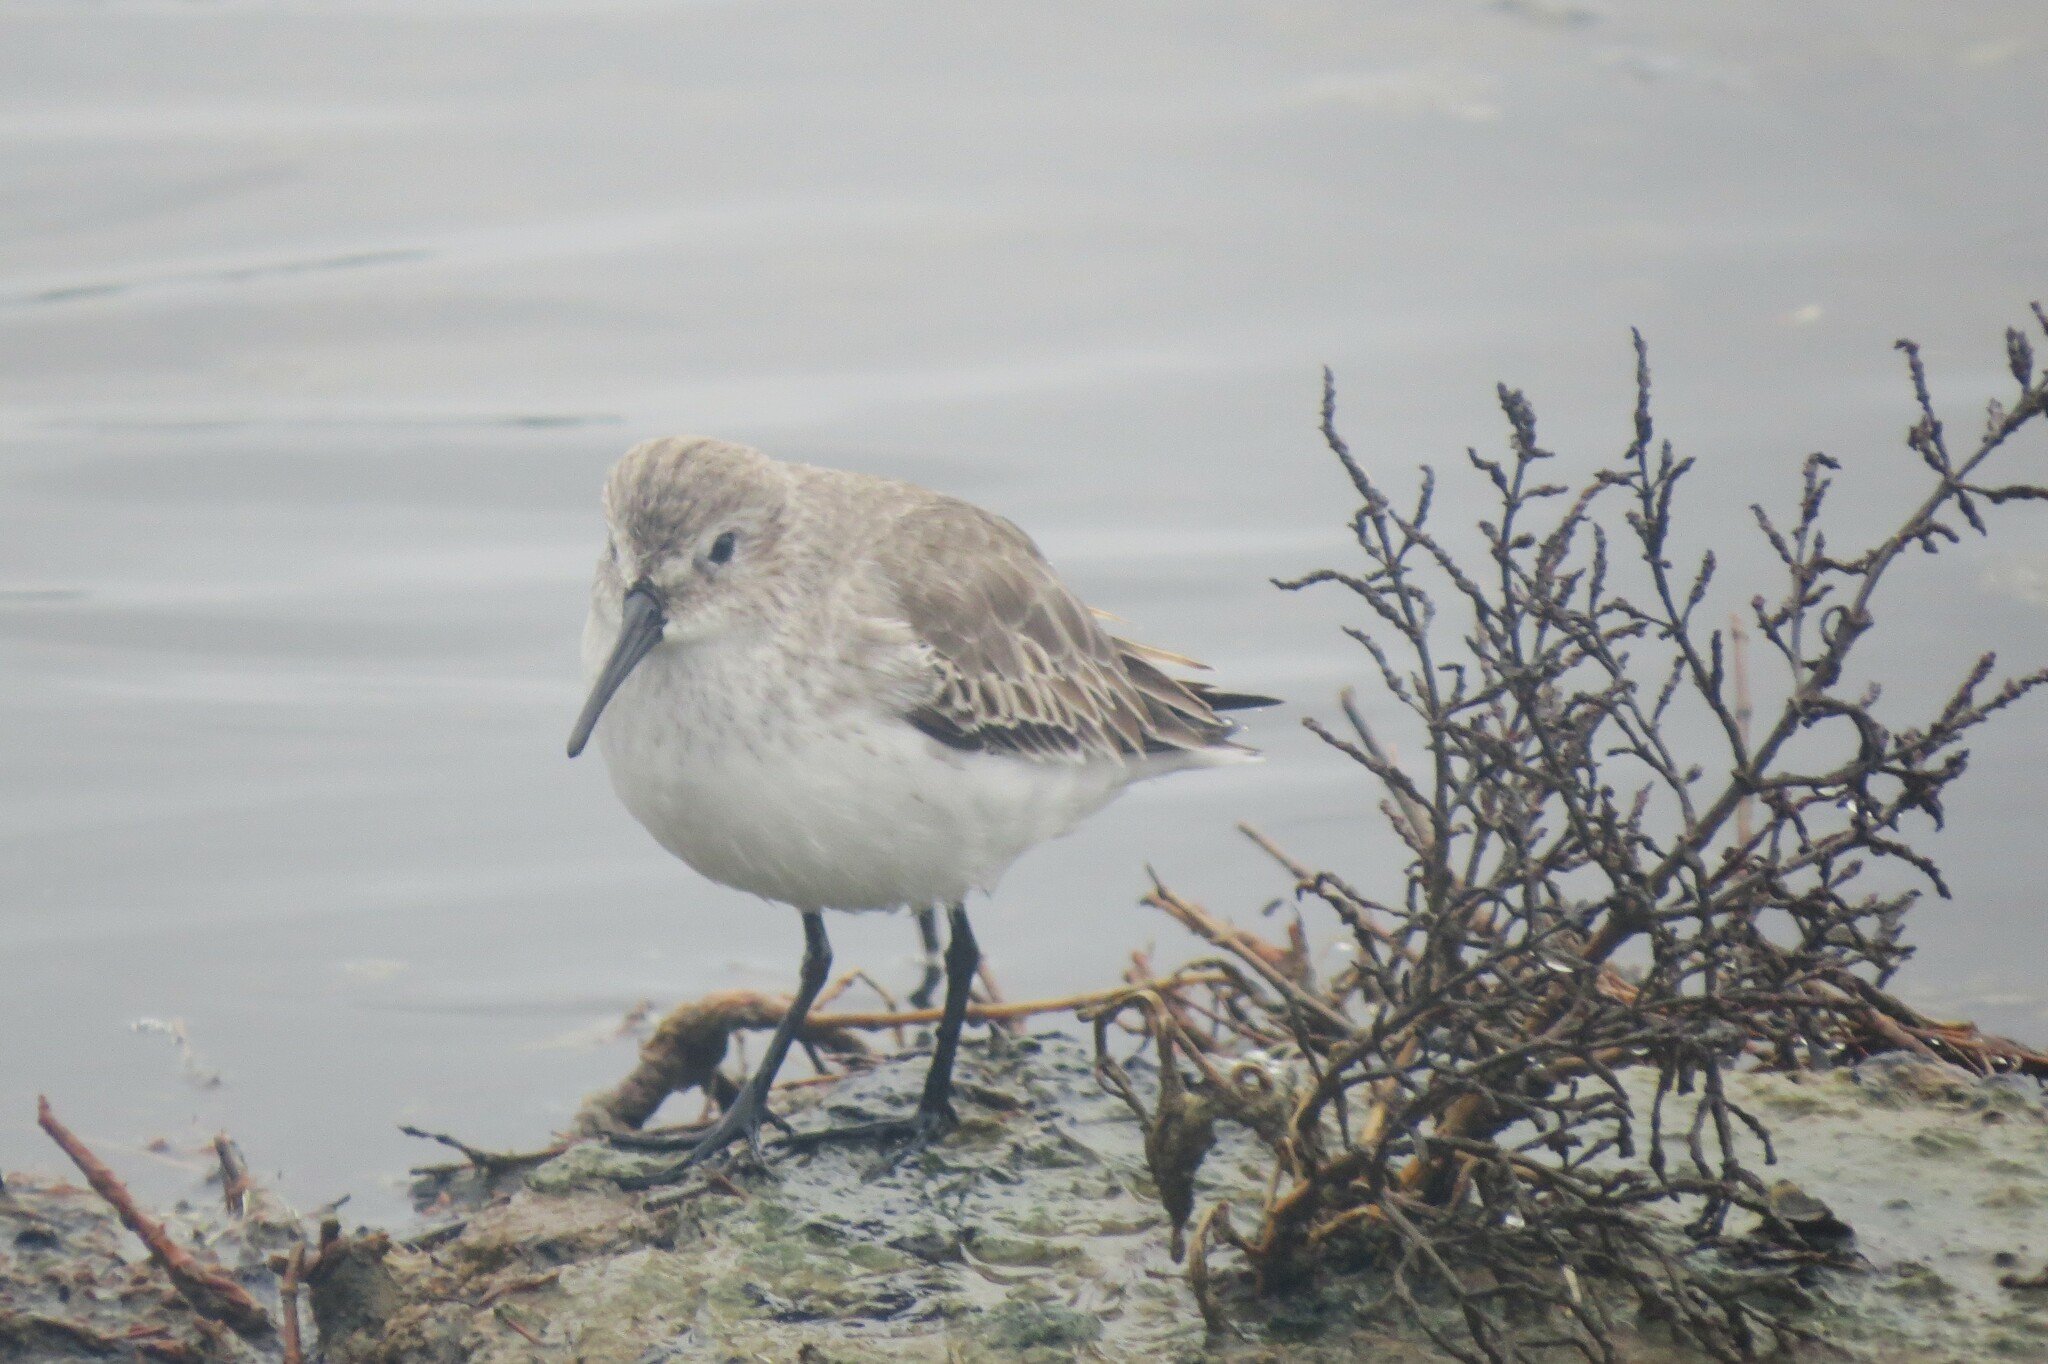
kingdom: Animalia
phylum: Chordata
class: Aves
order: Charadriiformes
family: Scolopacidae
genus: Calidris
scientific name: Calidris alpina
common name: Dunlin
